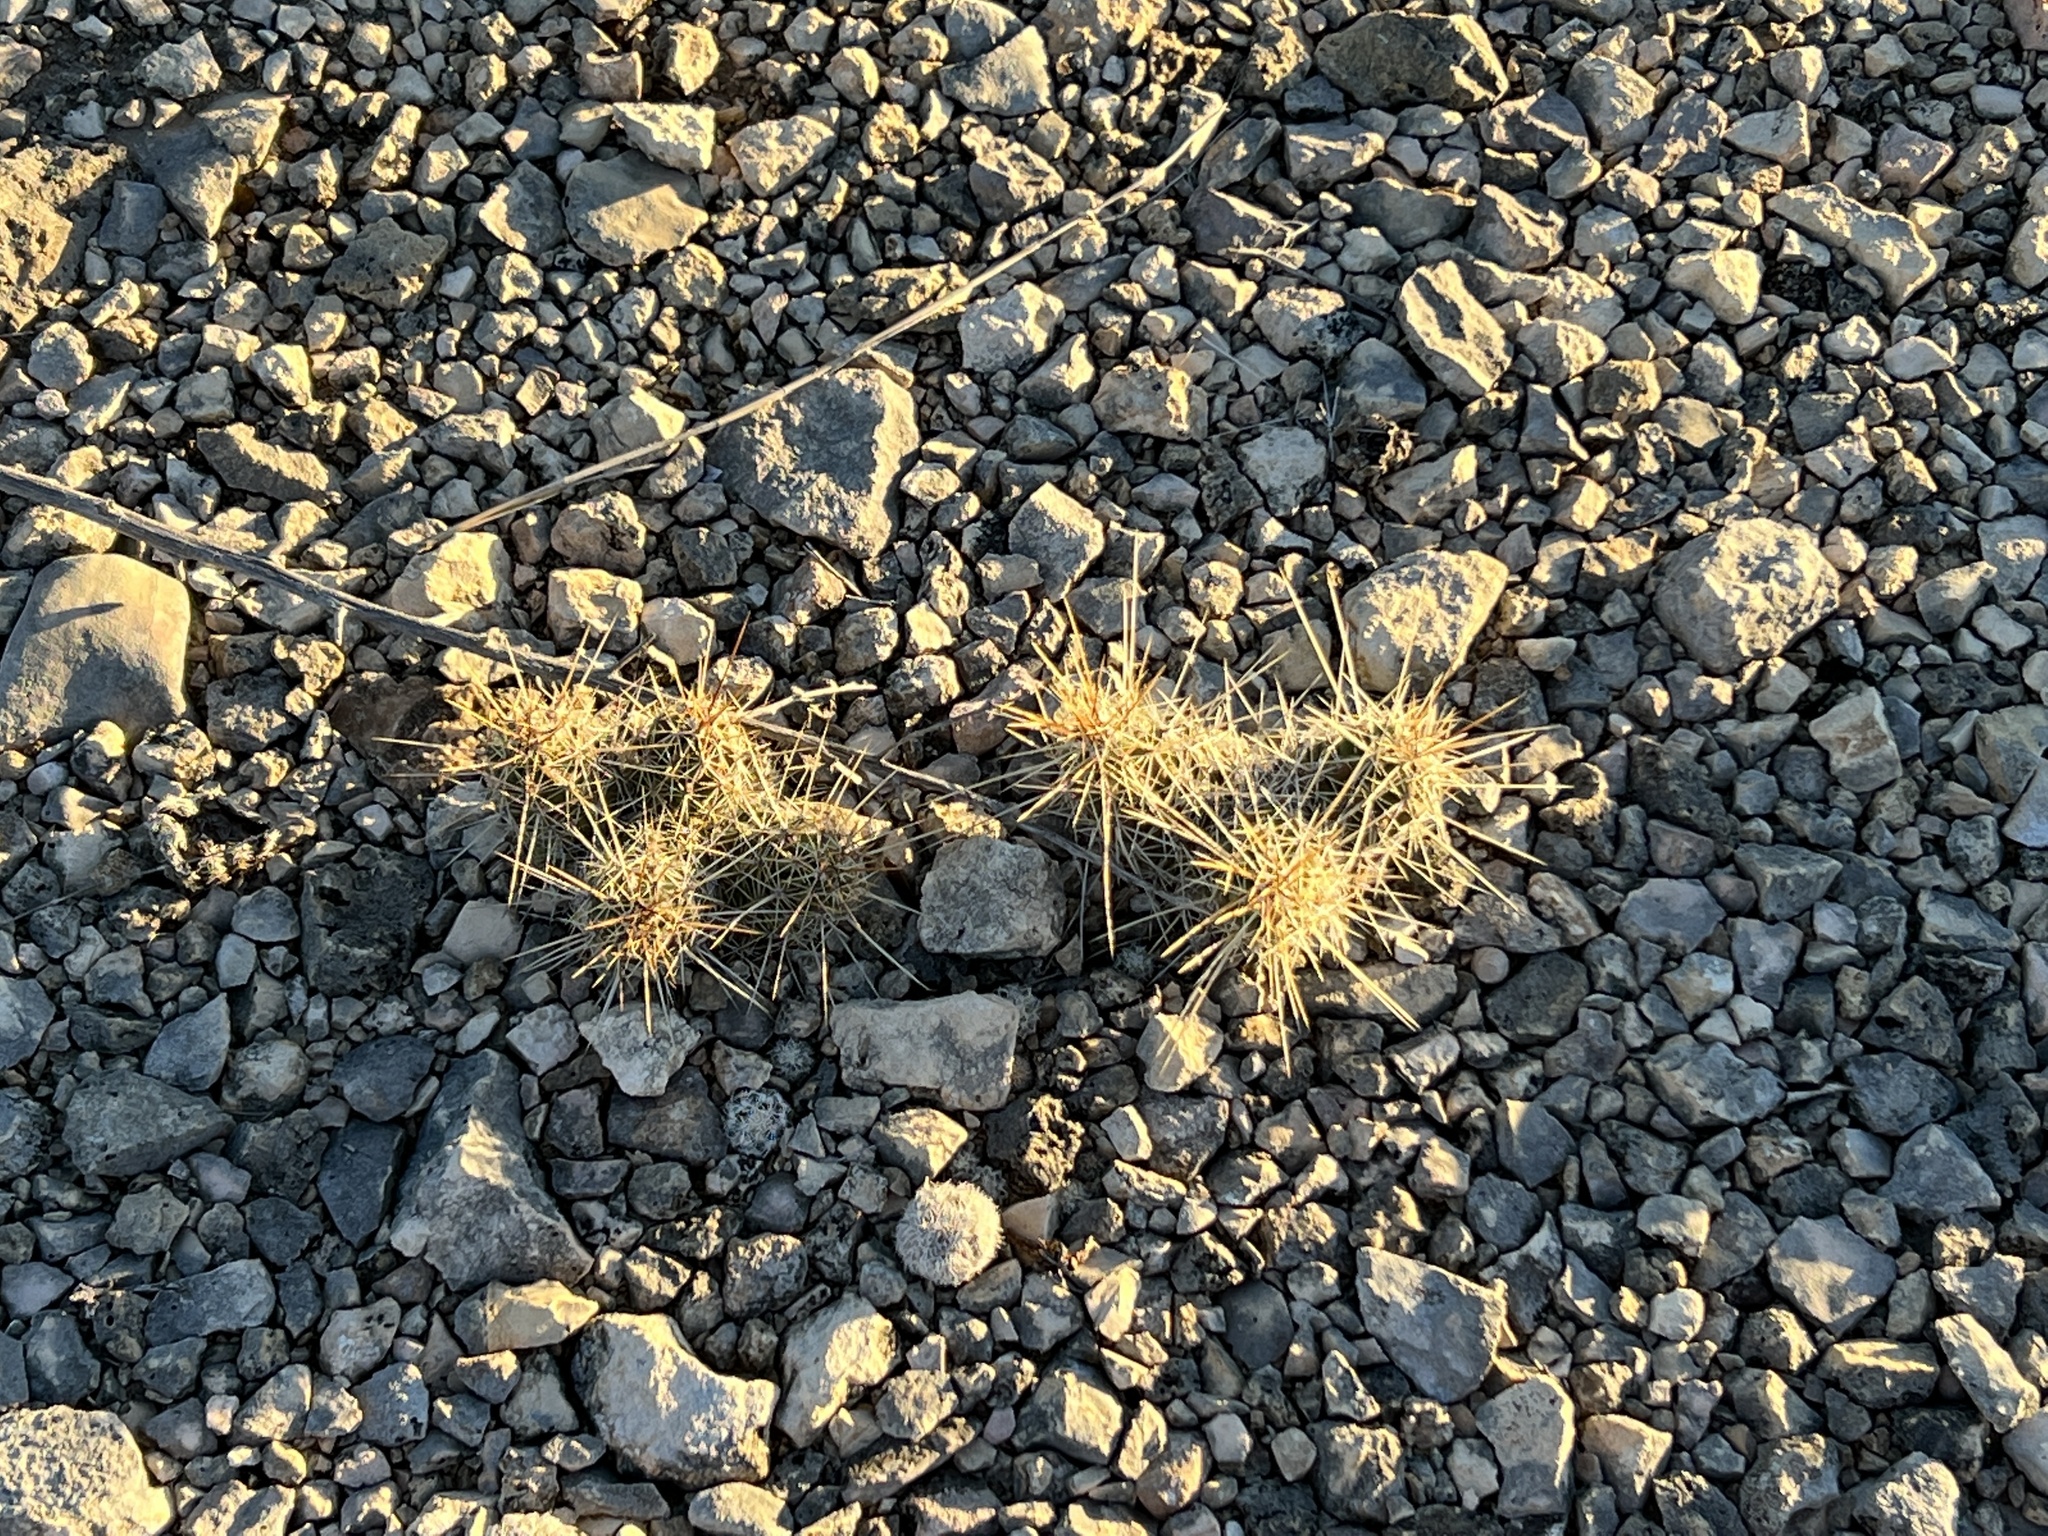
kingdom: Plantae
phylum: Tracheophyta
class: Magnoliopsida
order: Caryophyllales
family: Cactaceae
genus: Echinocereus
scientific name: Echinocereus enneacanthus
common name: Pitaya
